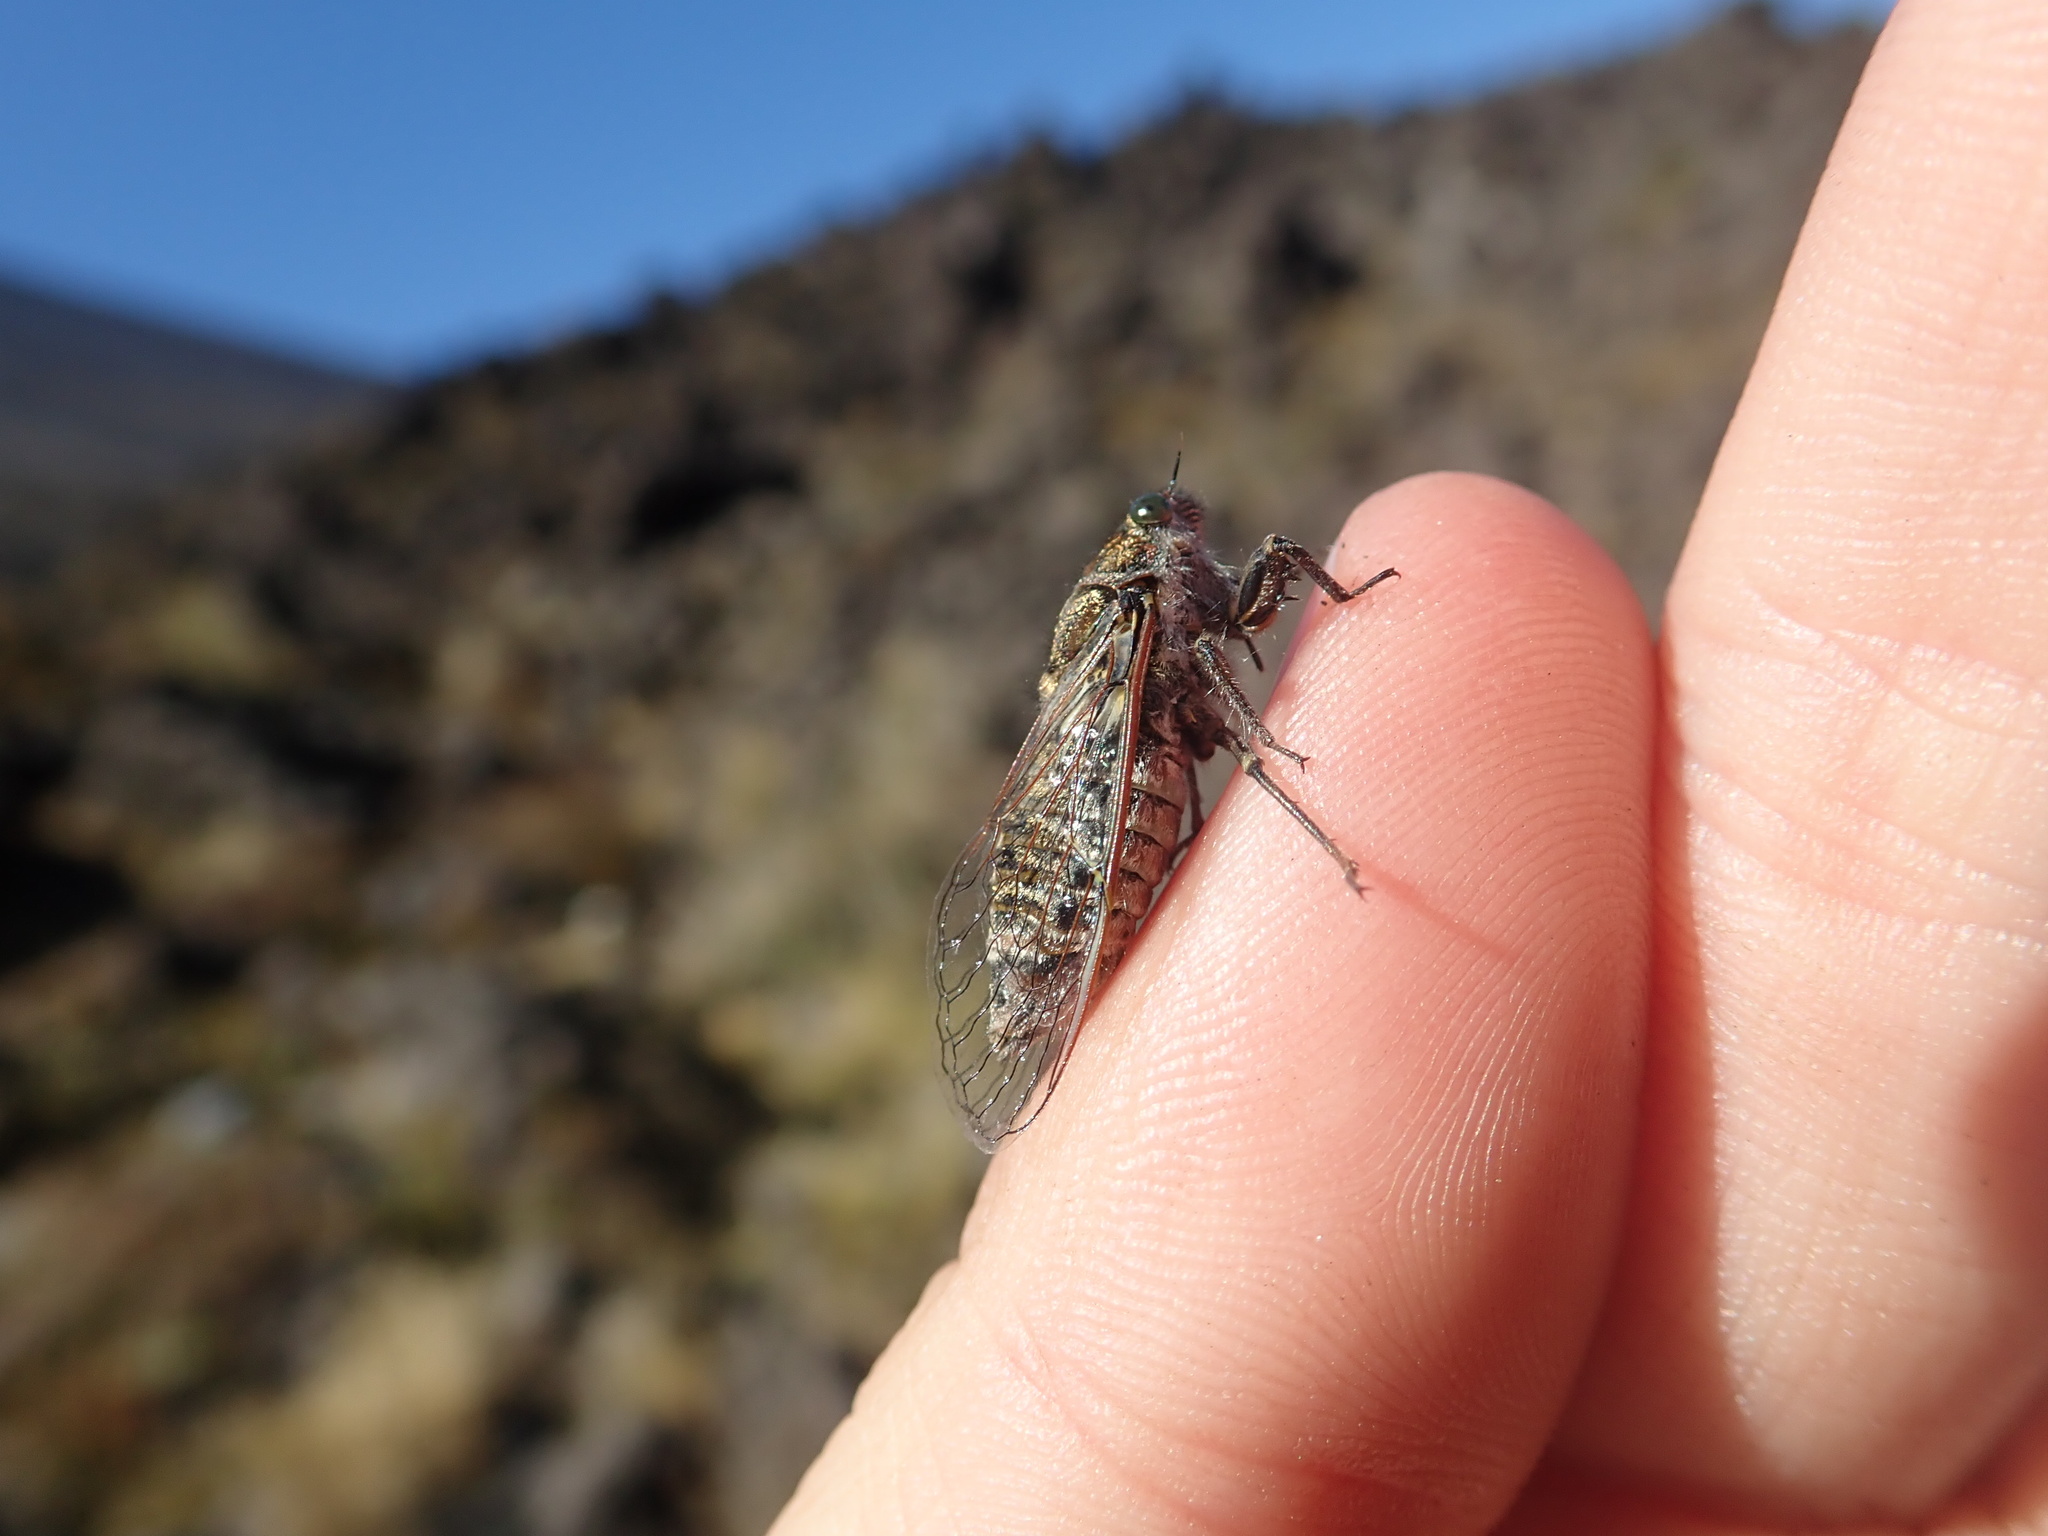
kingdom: Animalia
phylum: Arthropoda
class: Insecta
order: Hemiptera
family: Cicadidae
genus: Maoricicada
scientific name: Maoricicada campbelli
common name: Campbell's cicada
